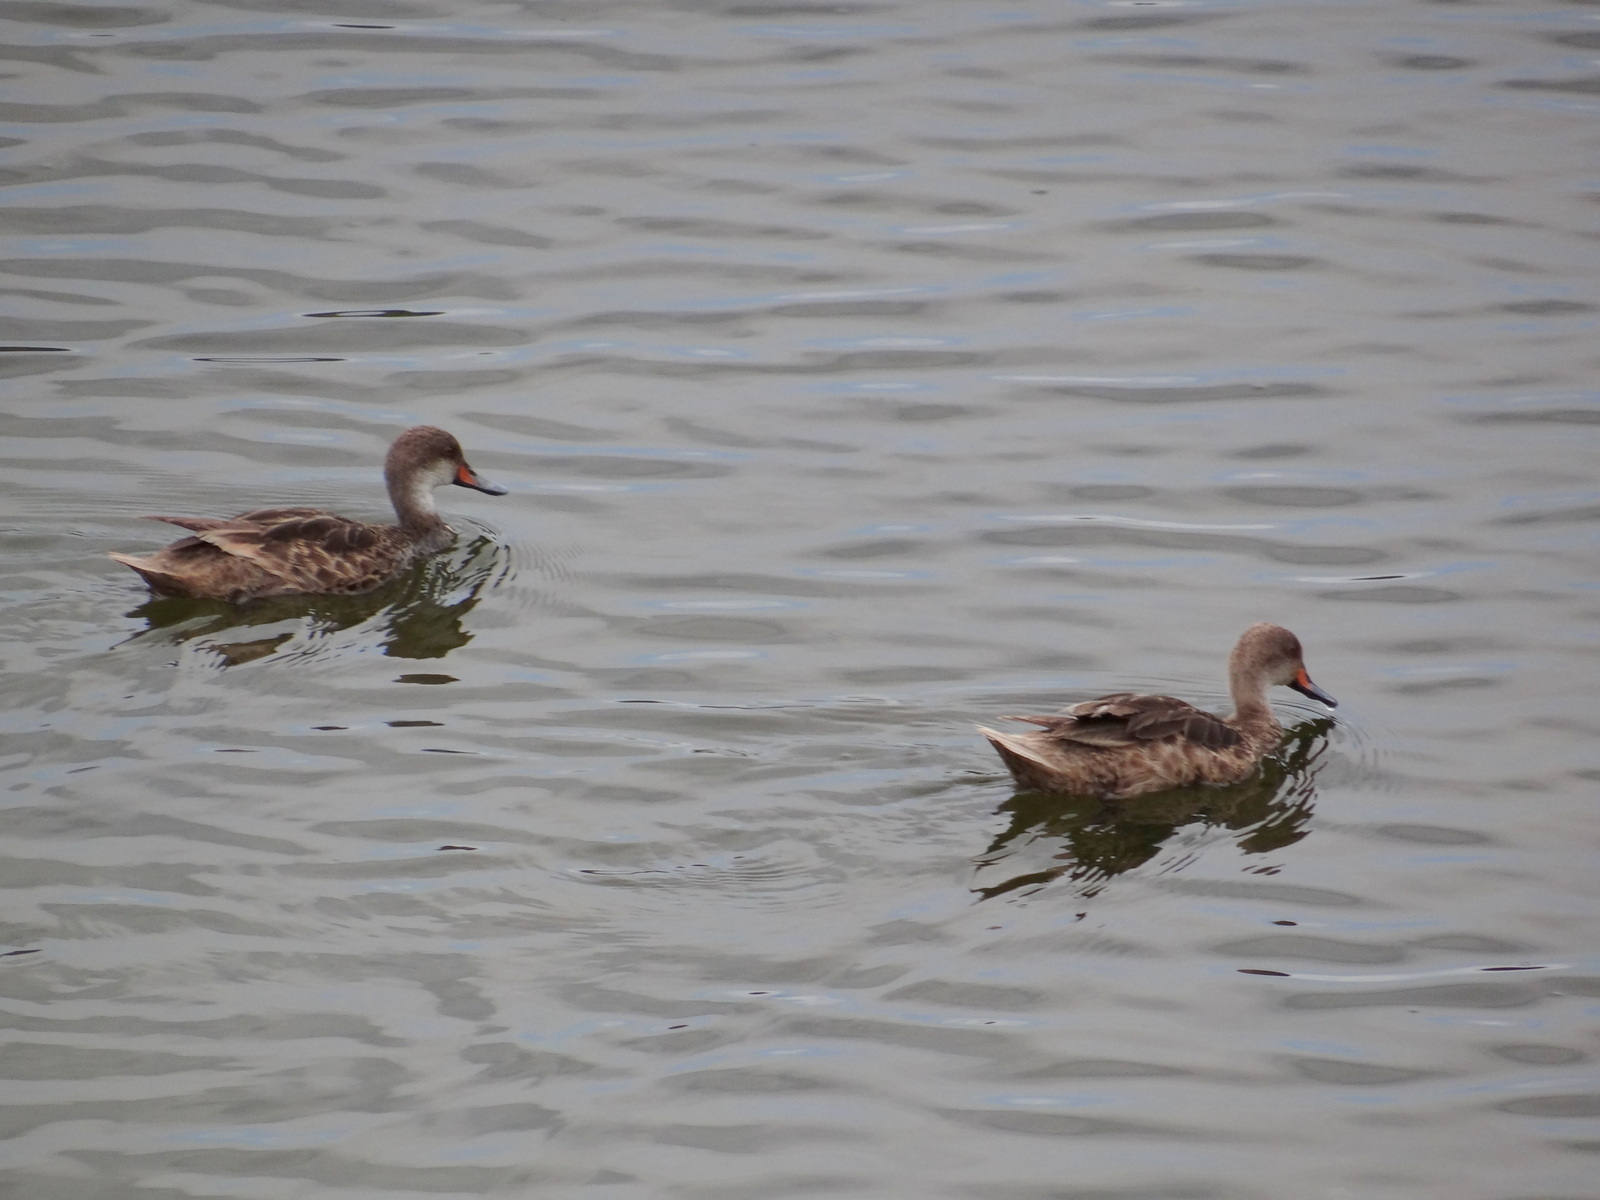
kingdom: Animalia
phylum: Chordata
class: Aves
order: Anseriformes
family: Anatidae
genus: Anas
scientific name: Anas bahamensis
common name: White-cheeked pintail
